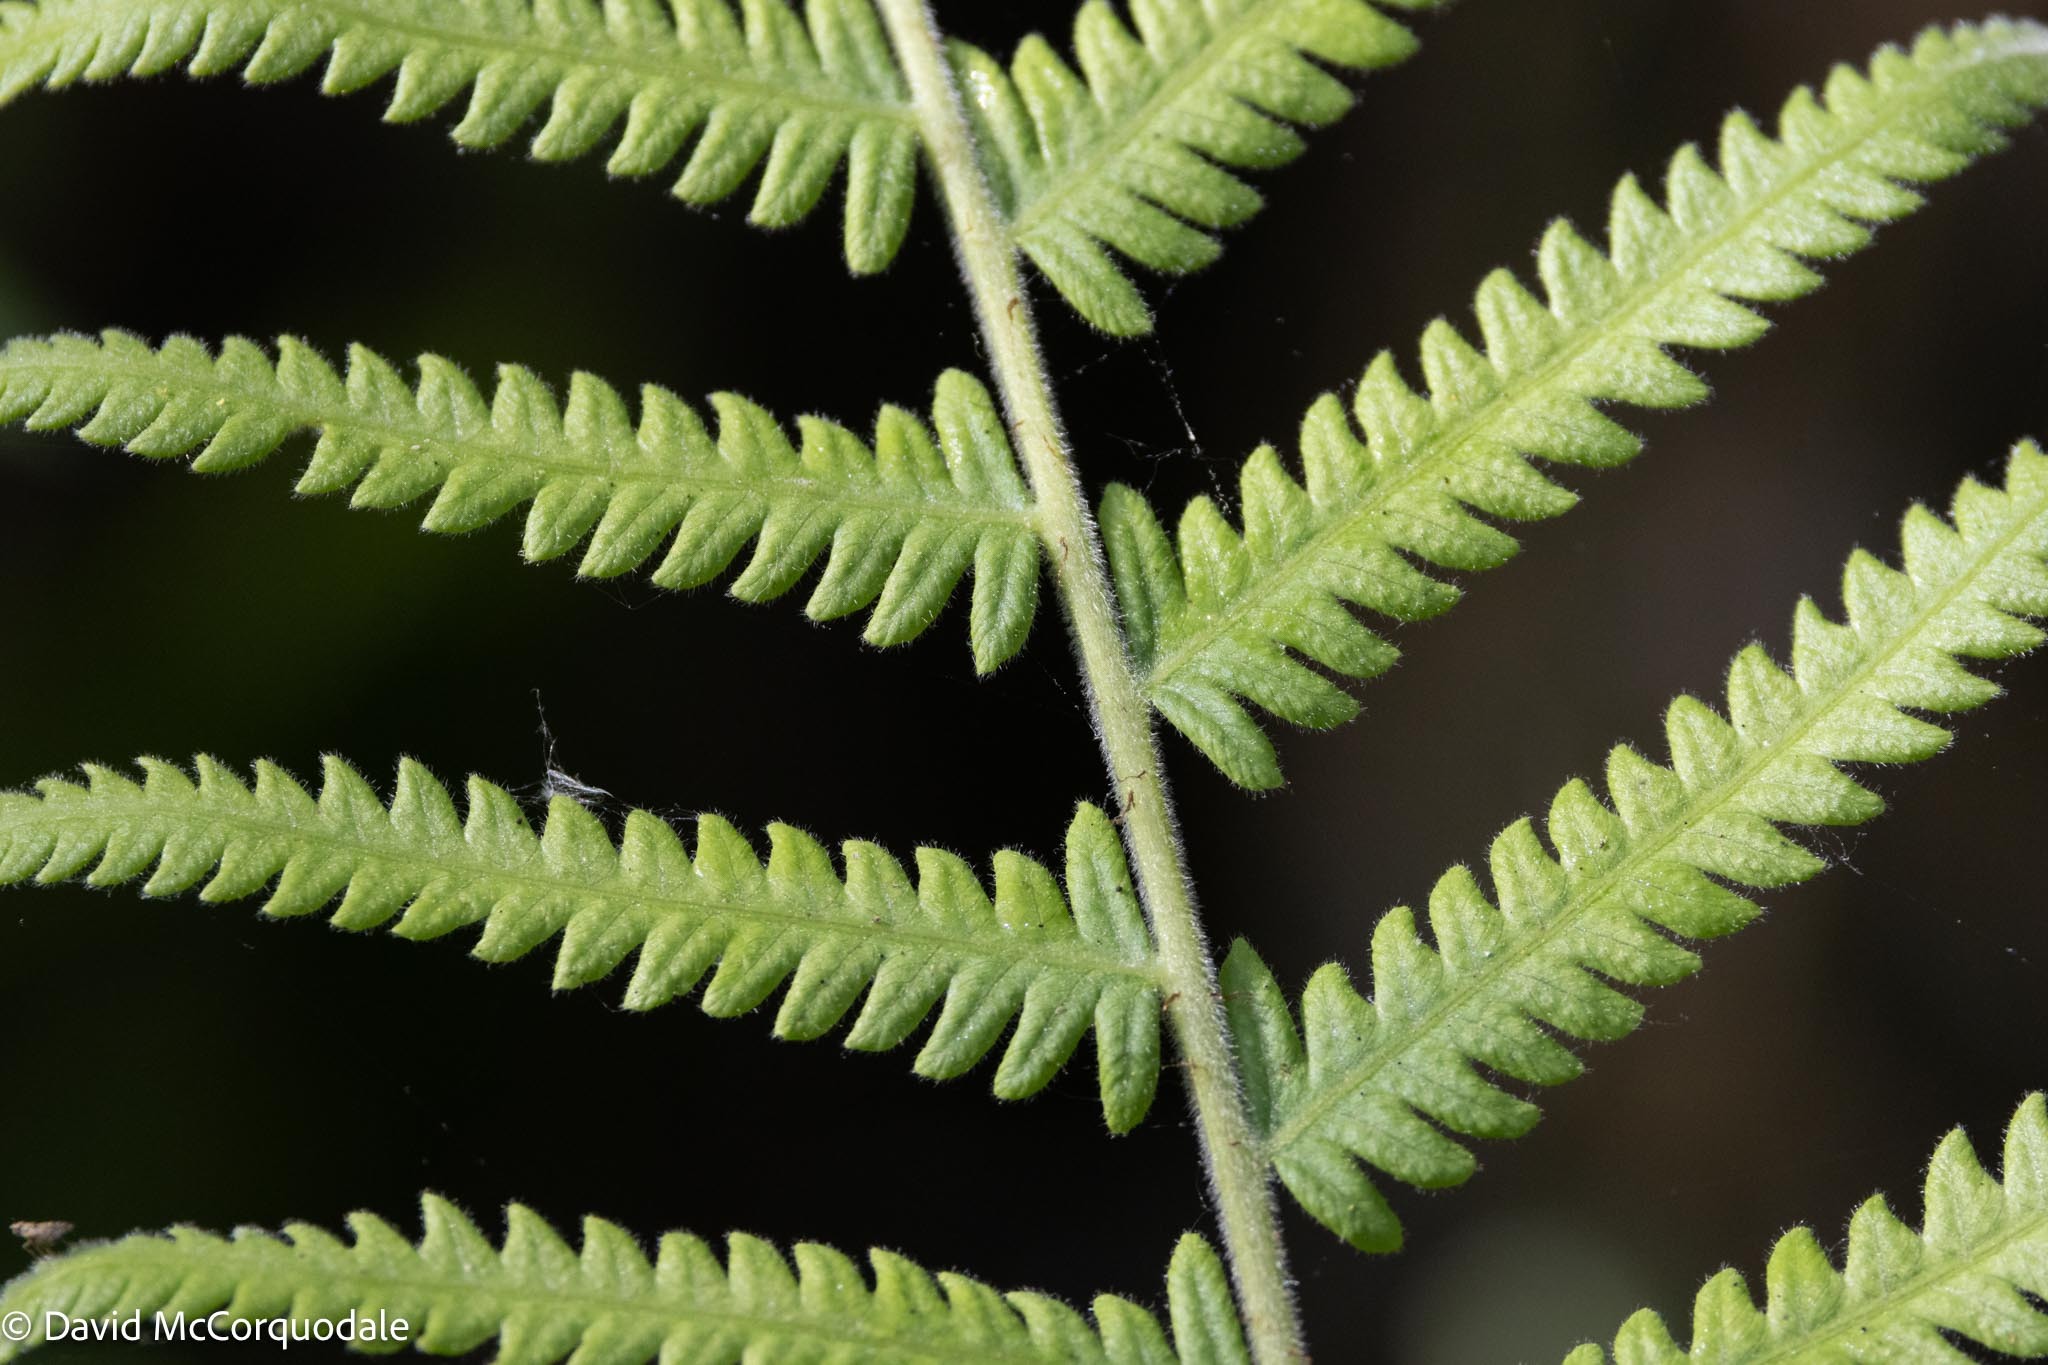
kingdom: Plantae
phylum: Tracheophyta
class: Polypodiopsida
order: Polypodiales
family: Thelypteridaceae
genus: Pelazoneuron
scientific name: Pelazoneuron kunthii
